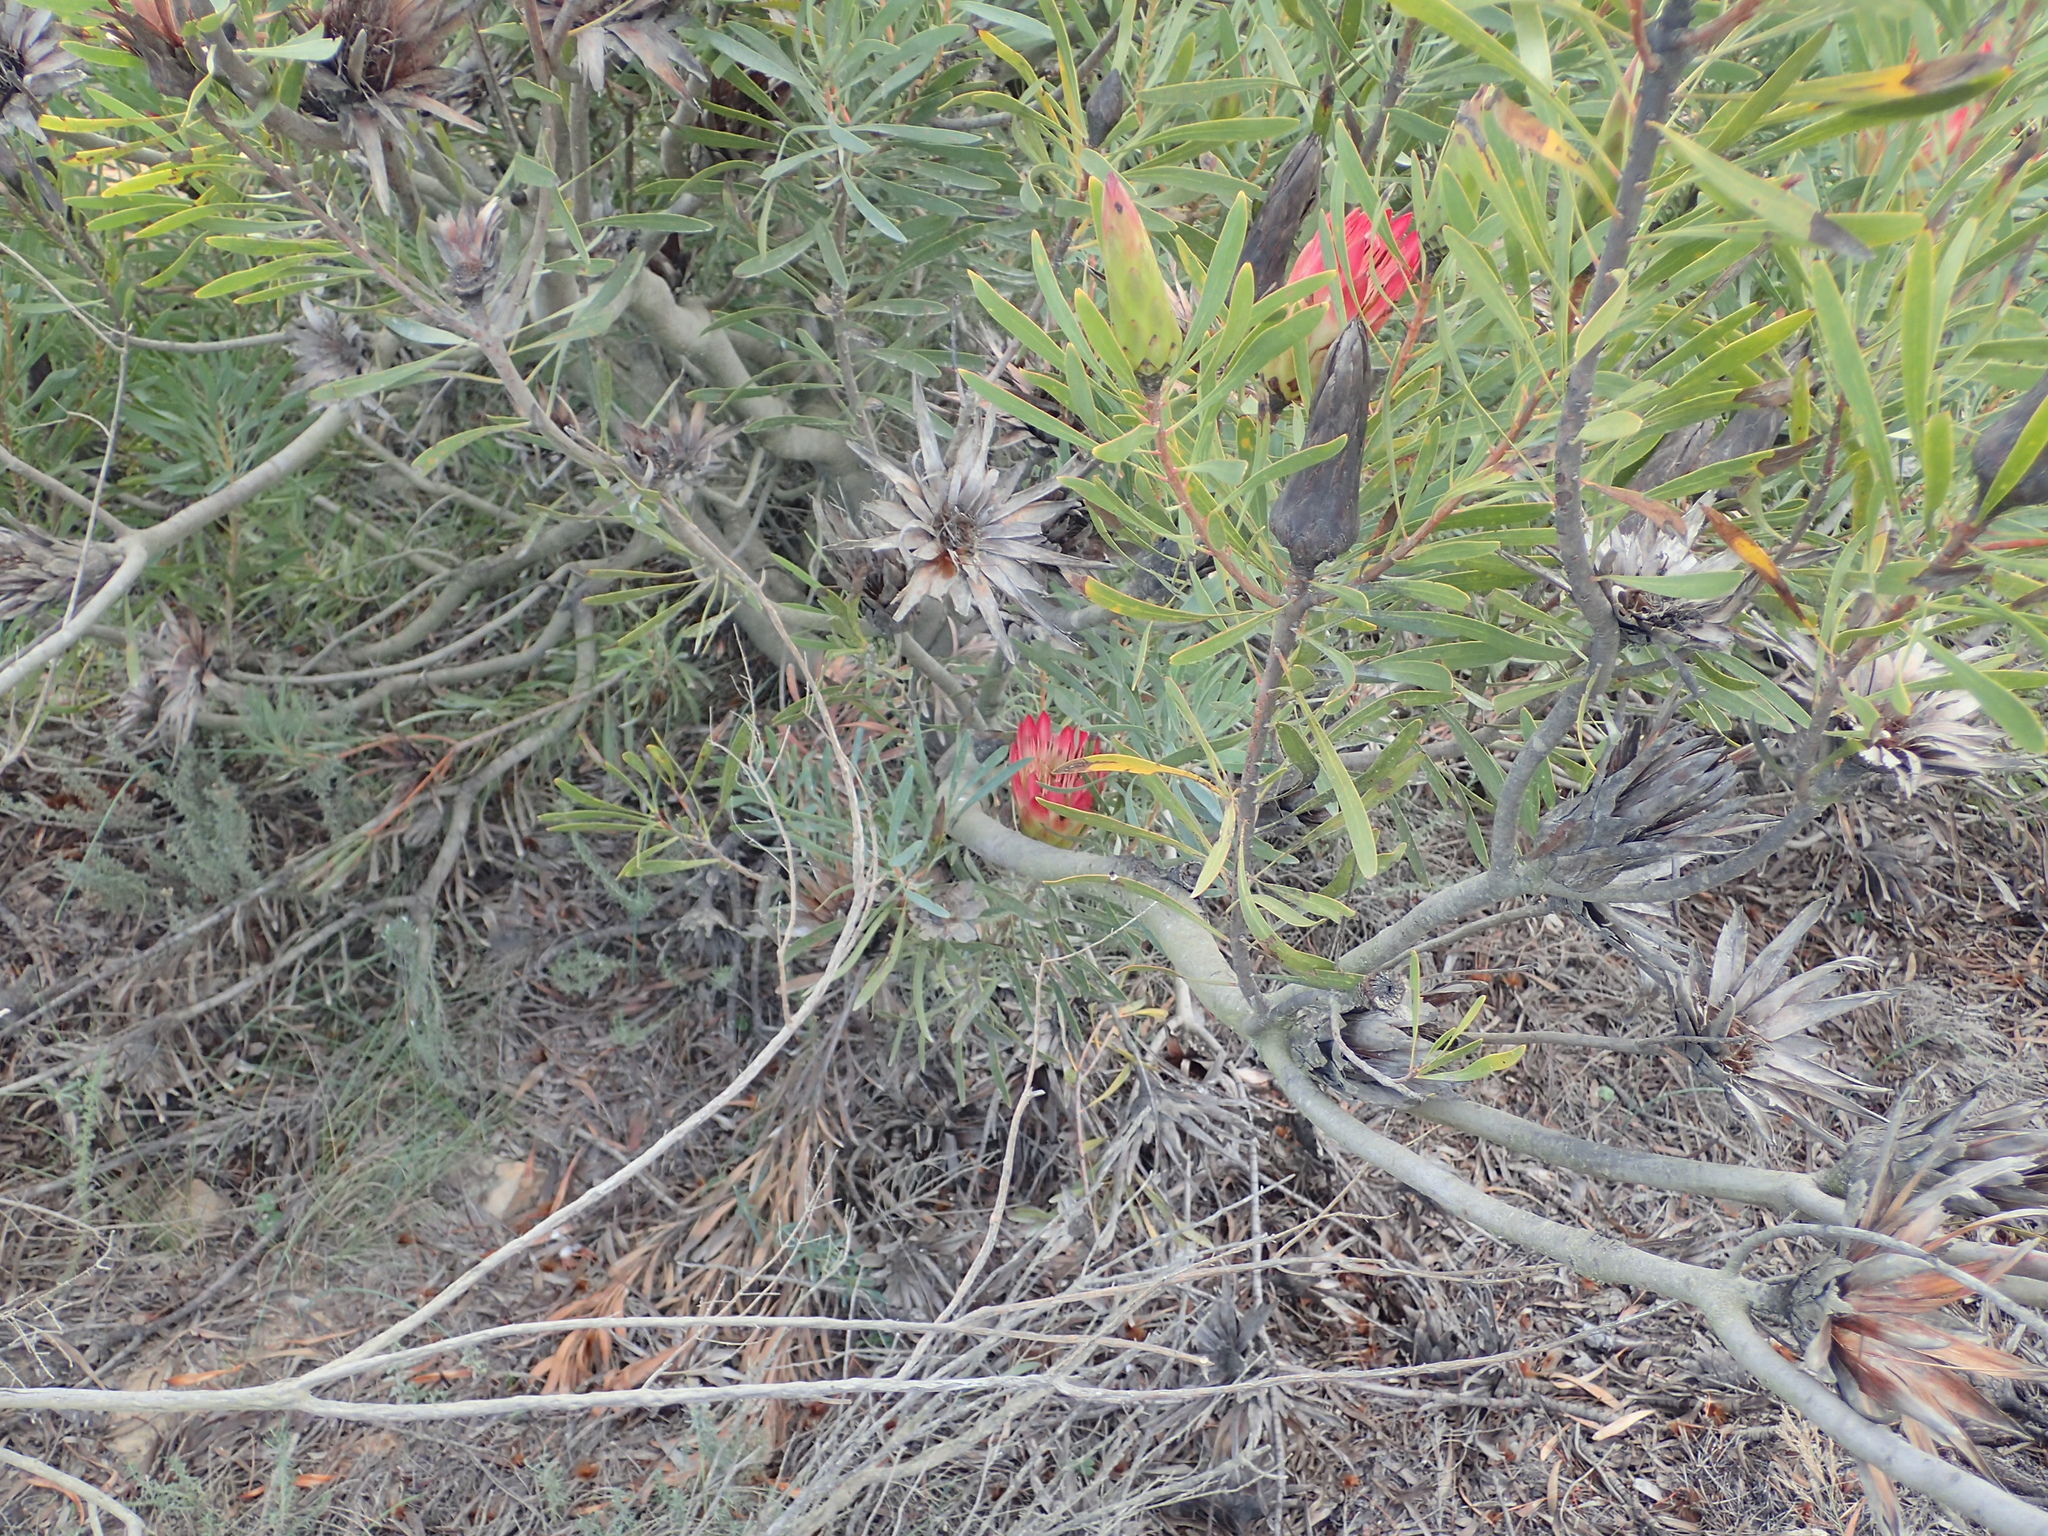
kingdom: Plantae
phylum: Tracheophyta
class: Magnoliopsida
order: Proteales
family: Proteaceae
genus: Protea
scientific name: Protea repens
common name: Sugarbush
